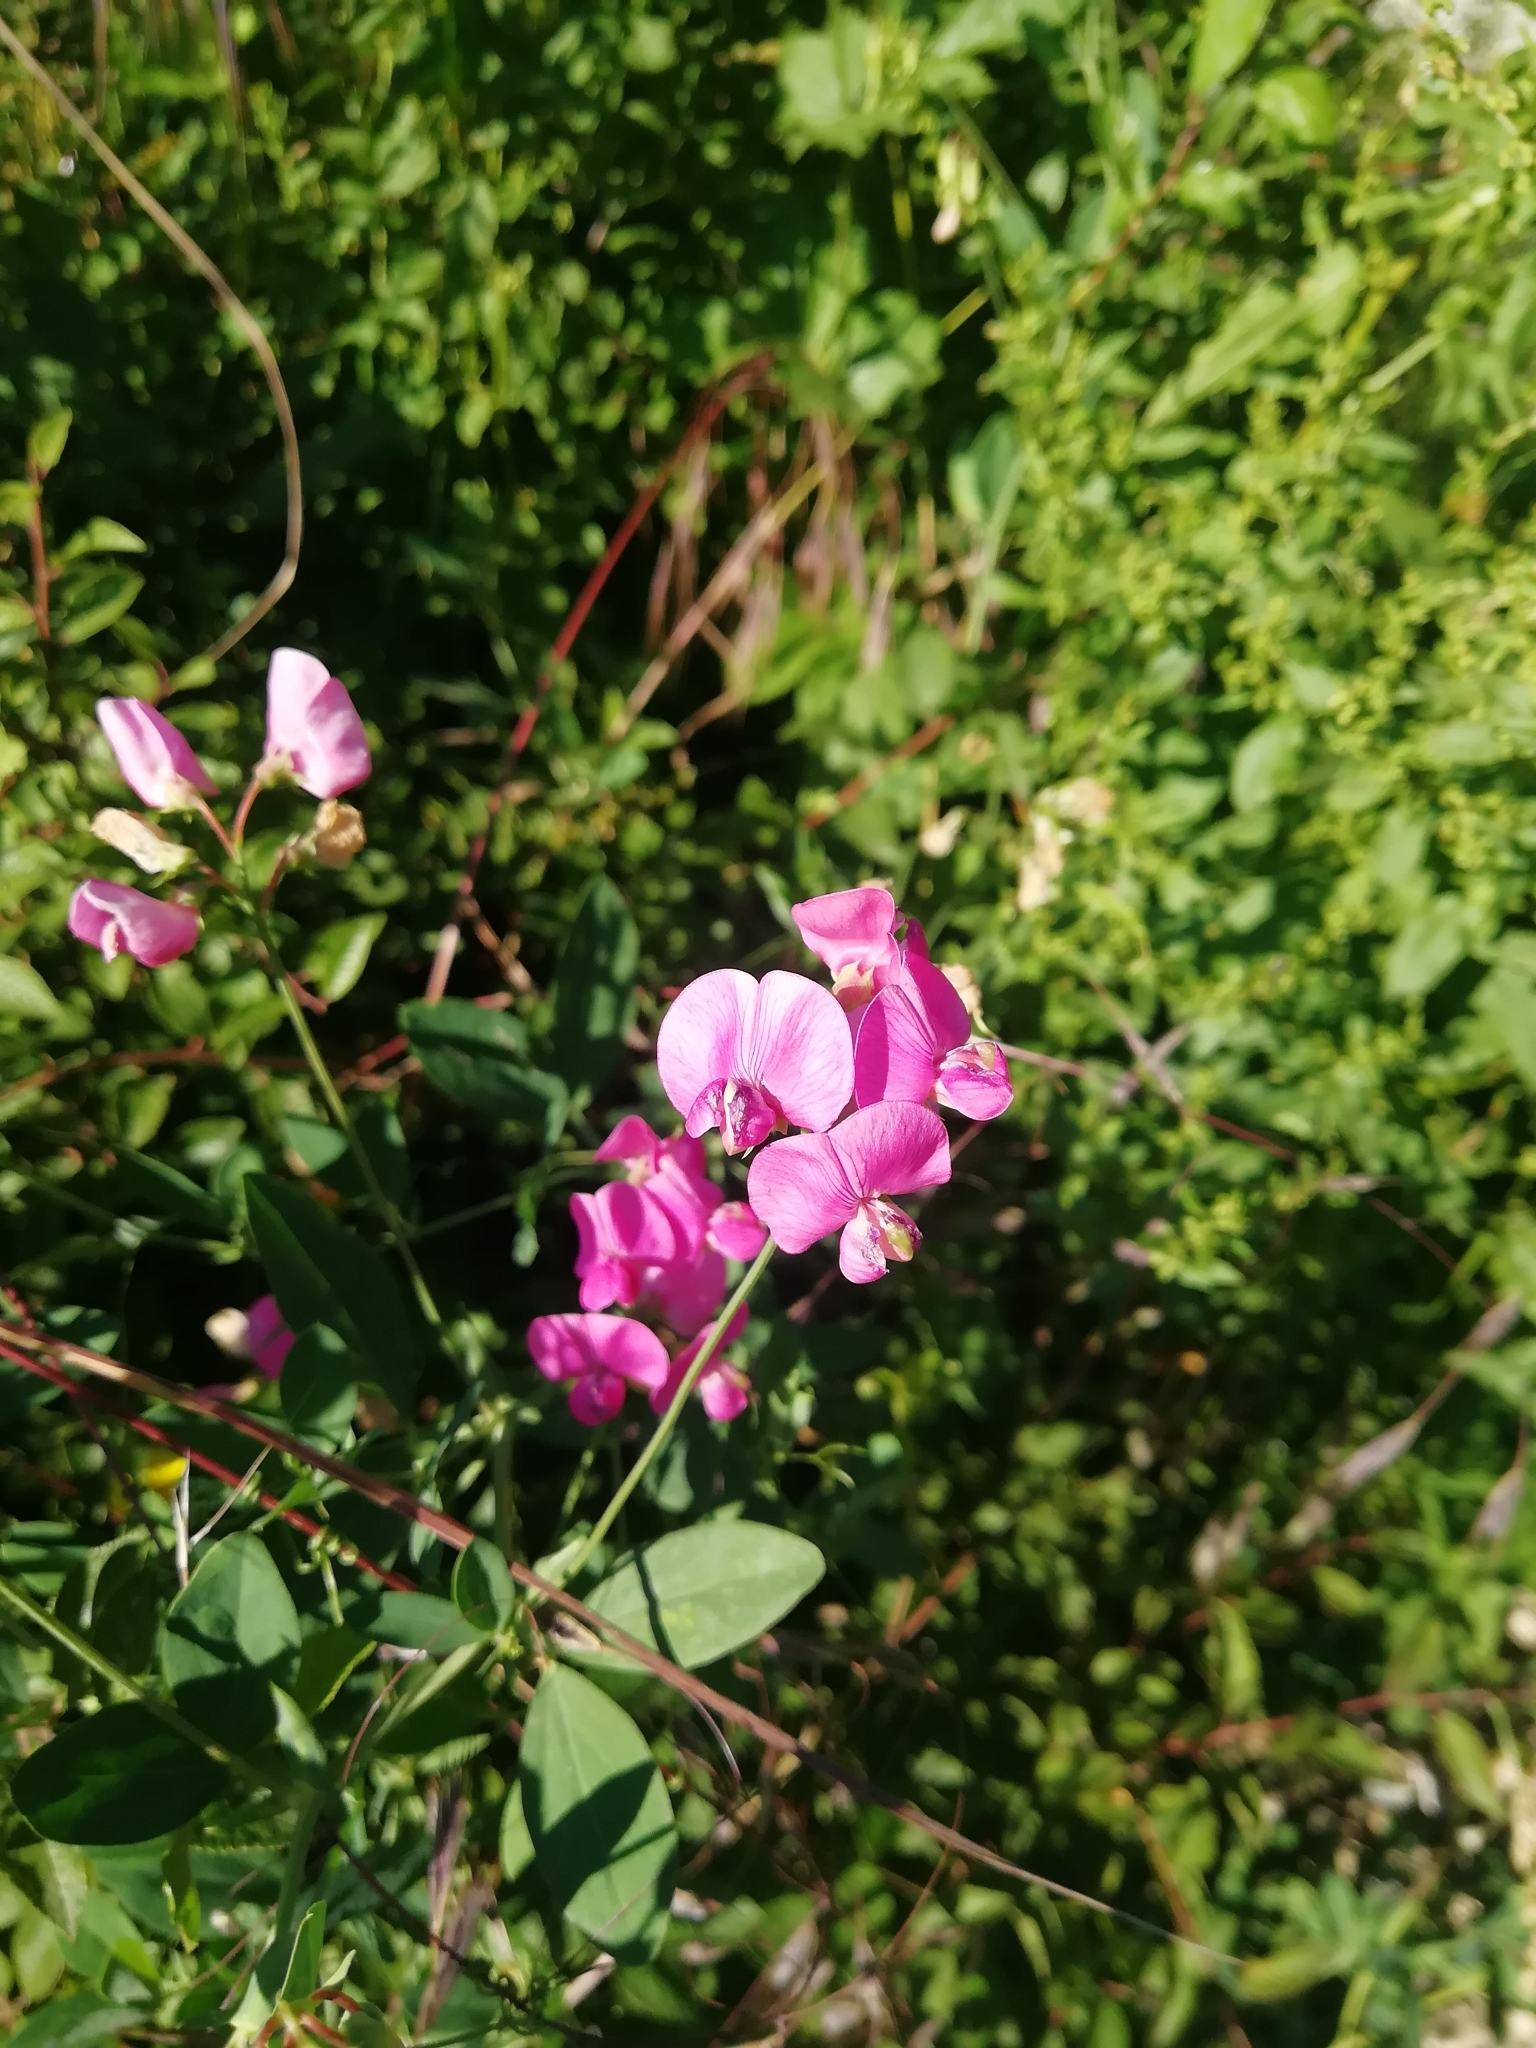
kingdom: Plantae
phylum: Tracheophyta
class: Magnoliopsida
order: Fabales
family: Fabaceae
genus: Lathyrus
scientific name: Lathyrus tuberosus
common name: Tuberous pea
